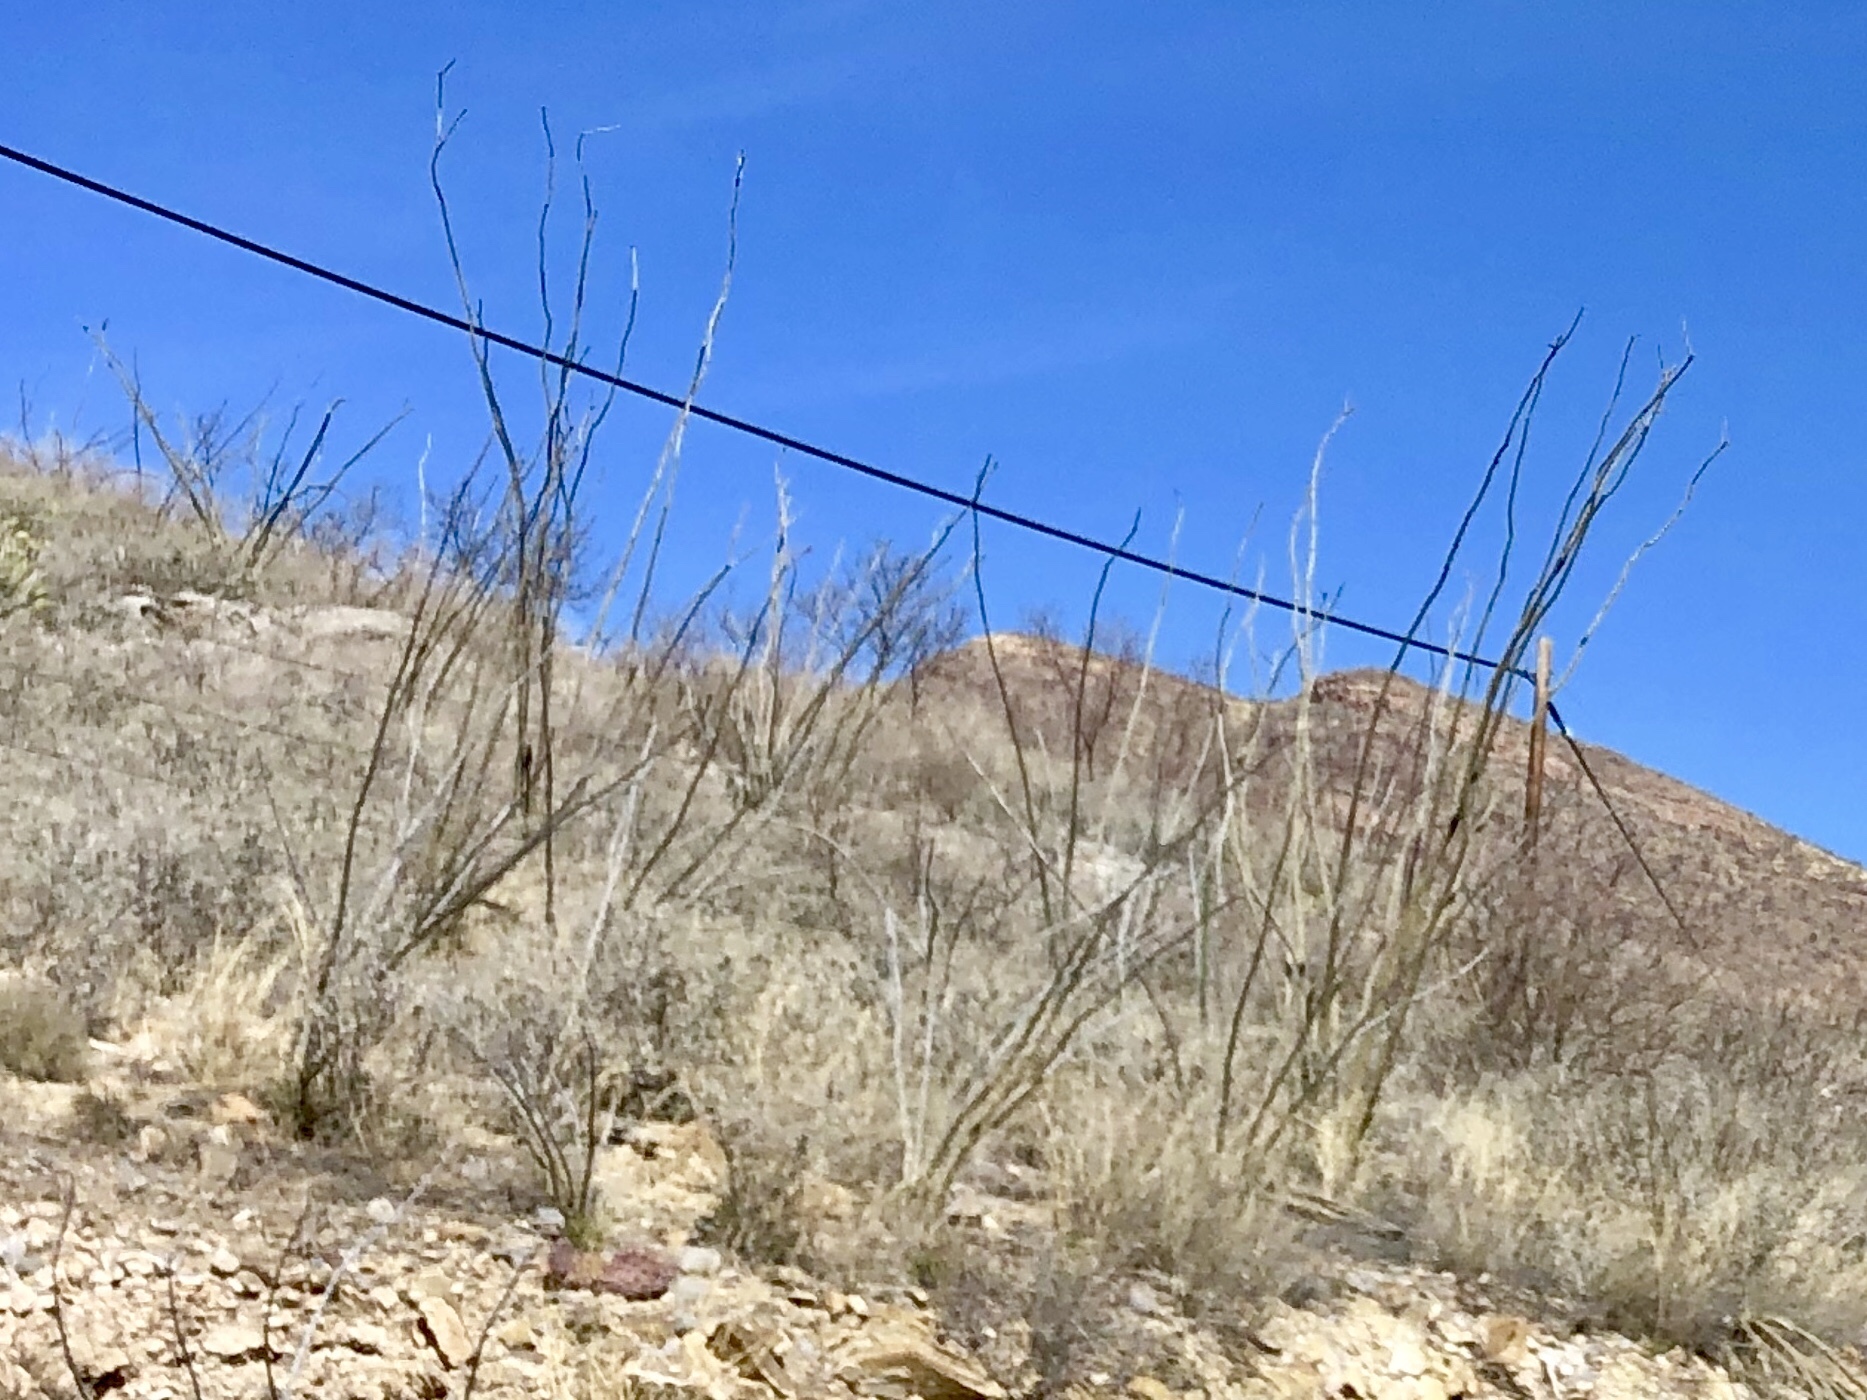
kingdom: Plantae
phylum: Tracheophyta
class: Magnoliopsida
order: Ericales
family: Fouquieriaceae
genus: Fouquieria
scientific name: Fouquieria splendens
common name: Vine-cactus
